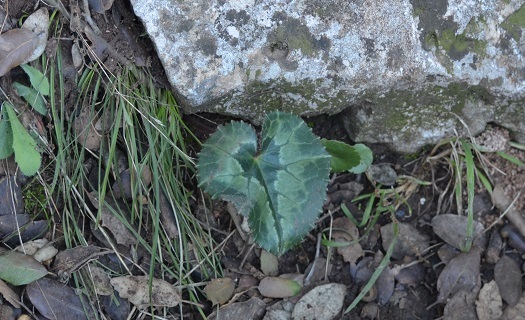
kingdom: Plantae
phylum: Tracheophyta
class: Magnoliopsida
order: Ericales
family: Primulaceae
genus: Cyclamen
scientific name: Cyclamen africanum
